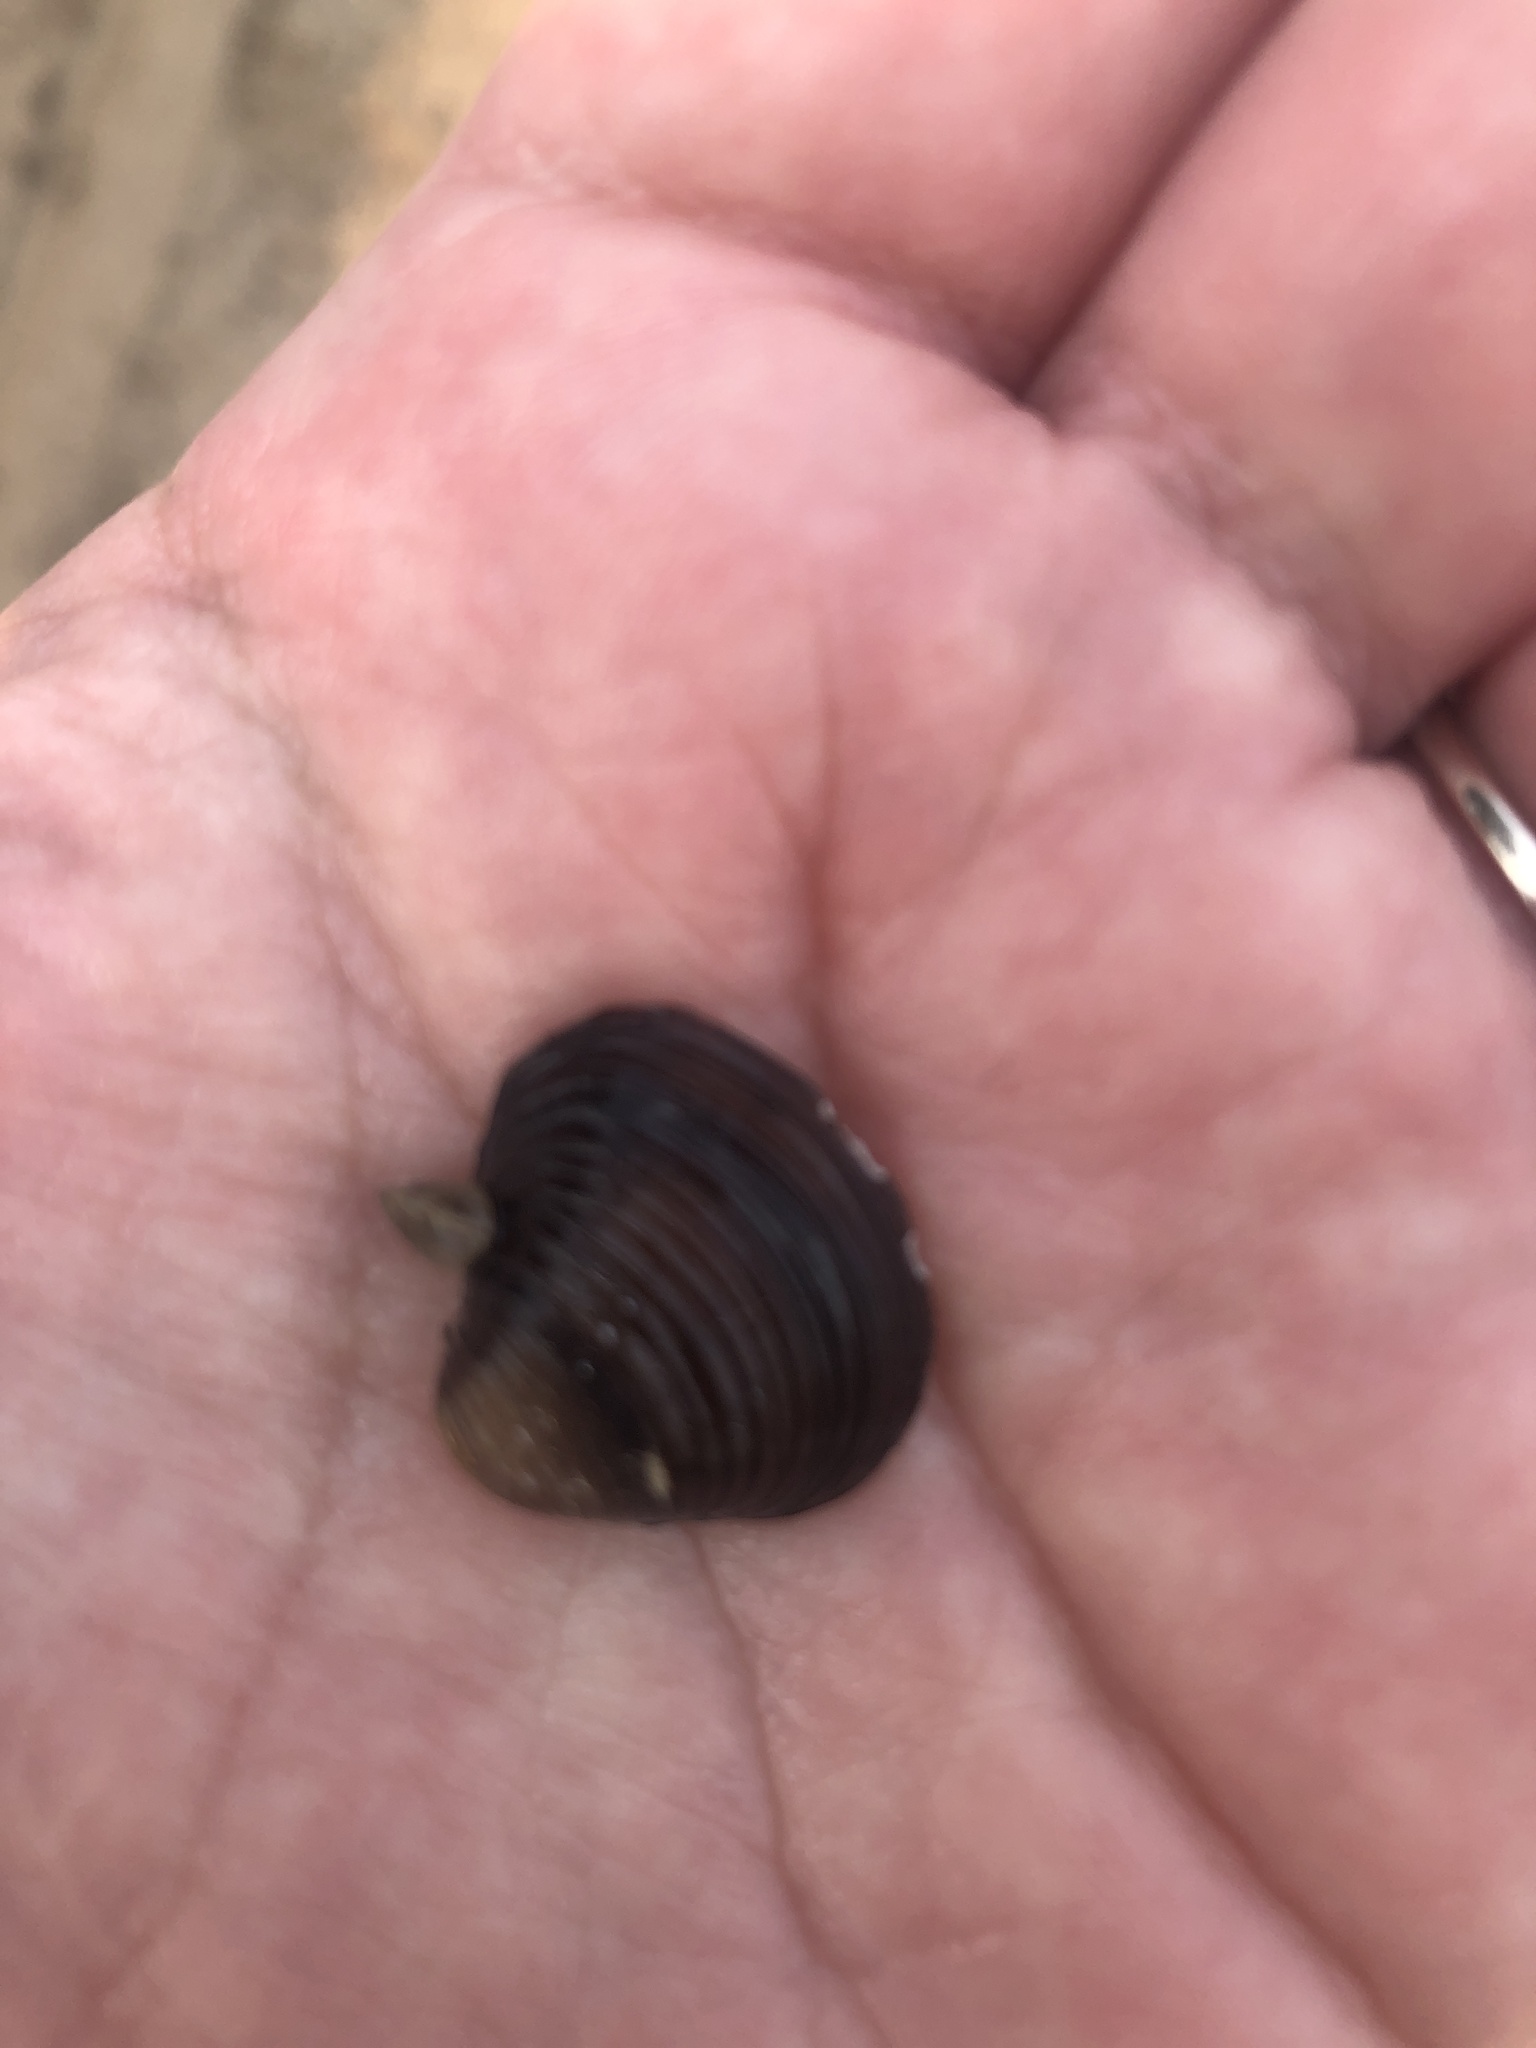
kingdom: Animalia
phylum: Mollusca
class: Bivalvia
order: Venerida
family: Cyrenidae
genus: Corbicula
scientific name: Corbicula fluminea
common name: Asian clam
